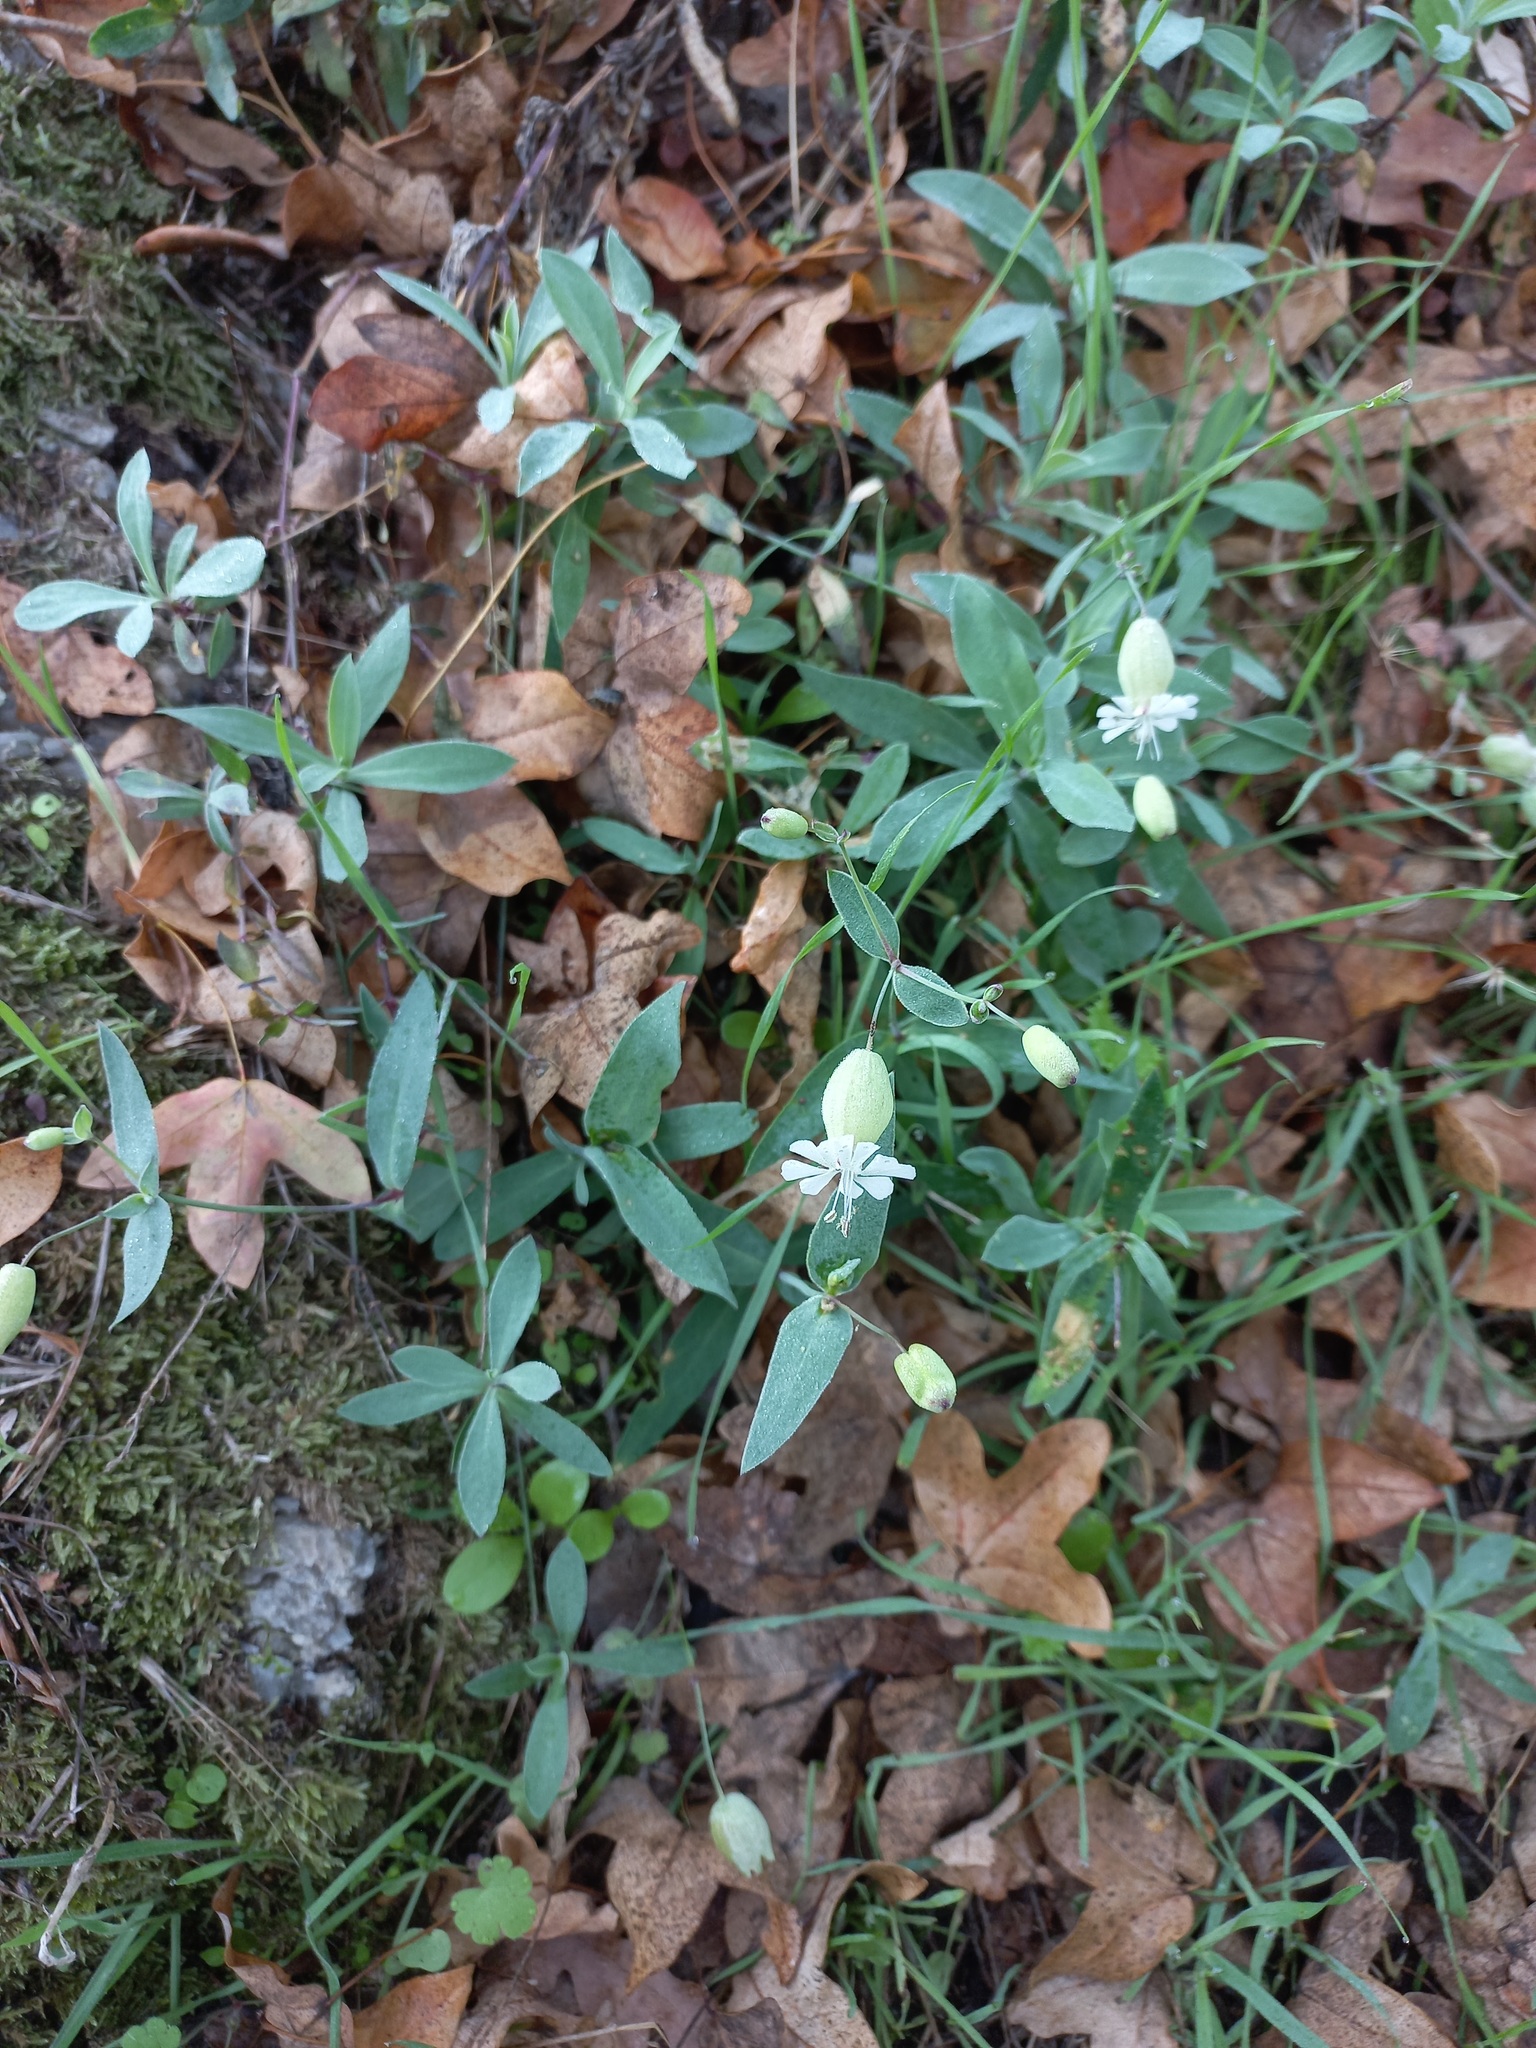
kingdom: Plantae
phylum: Tracheophyta
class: Magnoliopsida
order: Caryophyllales
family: Caryophyllaceae
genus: Silene
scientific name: Silene vulgaris
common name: Bladder campion
